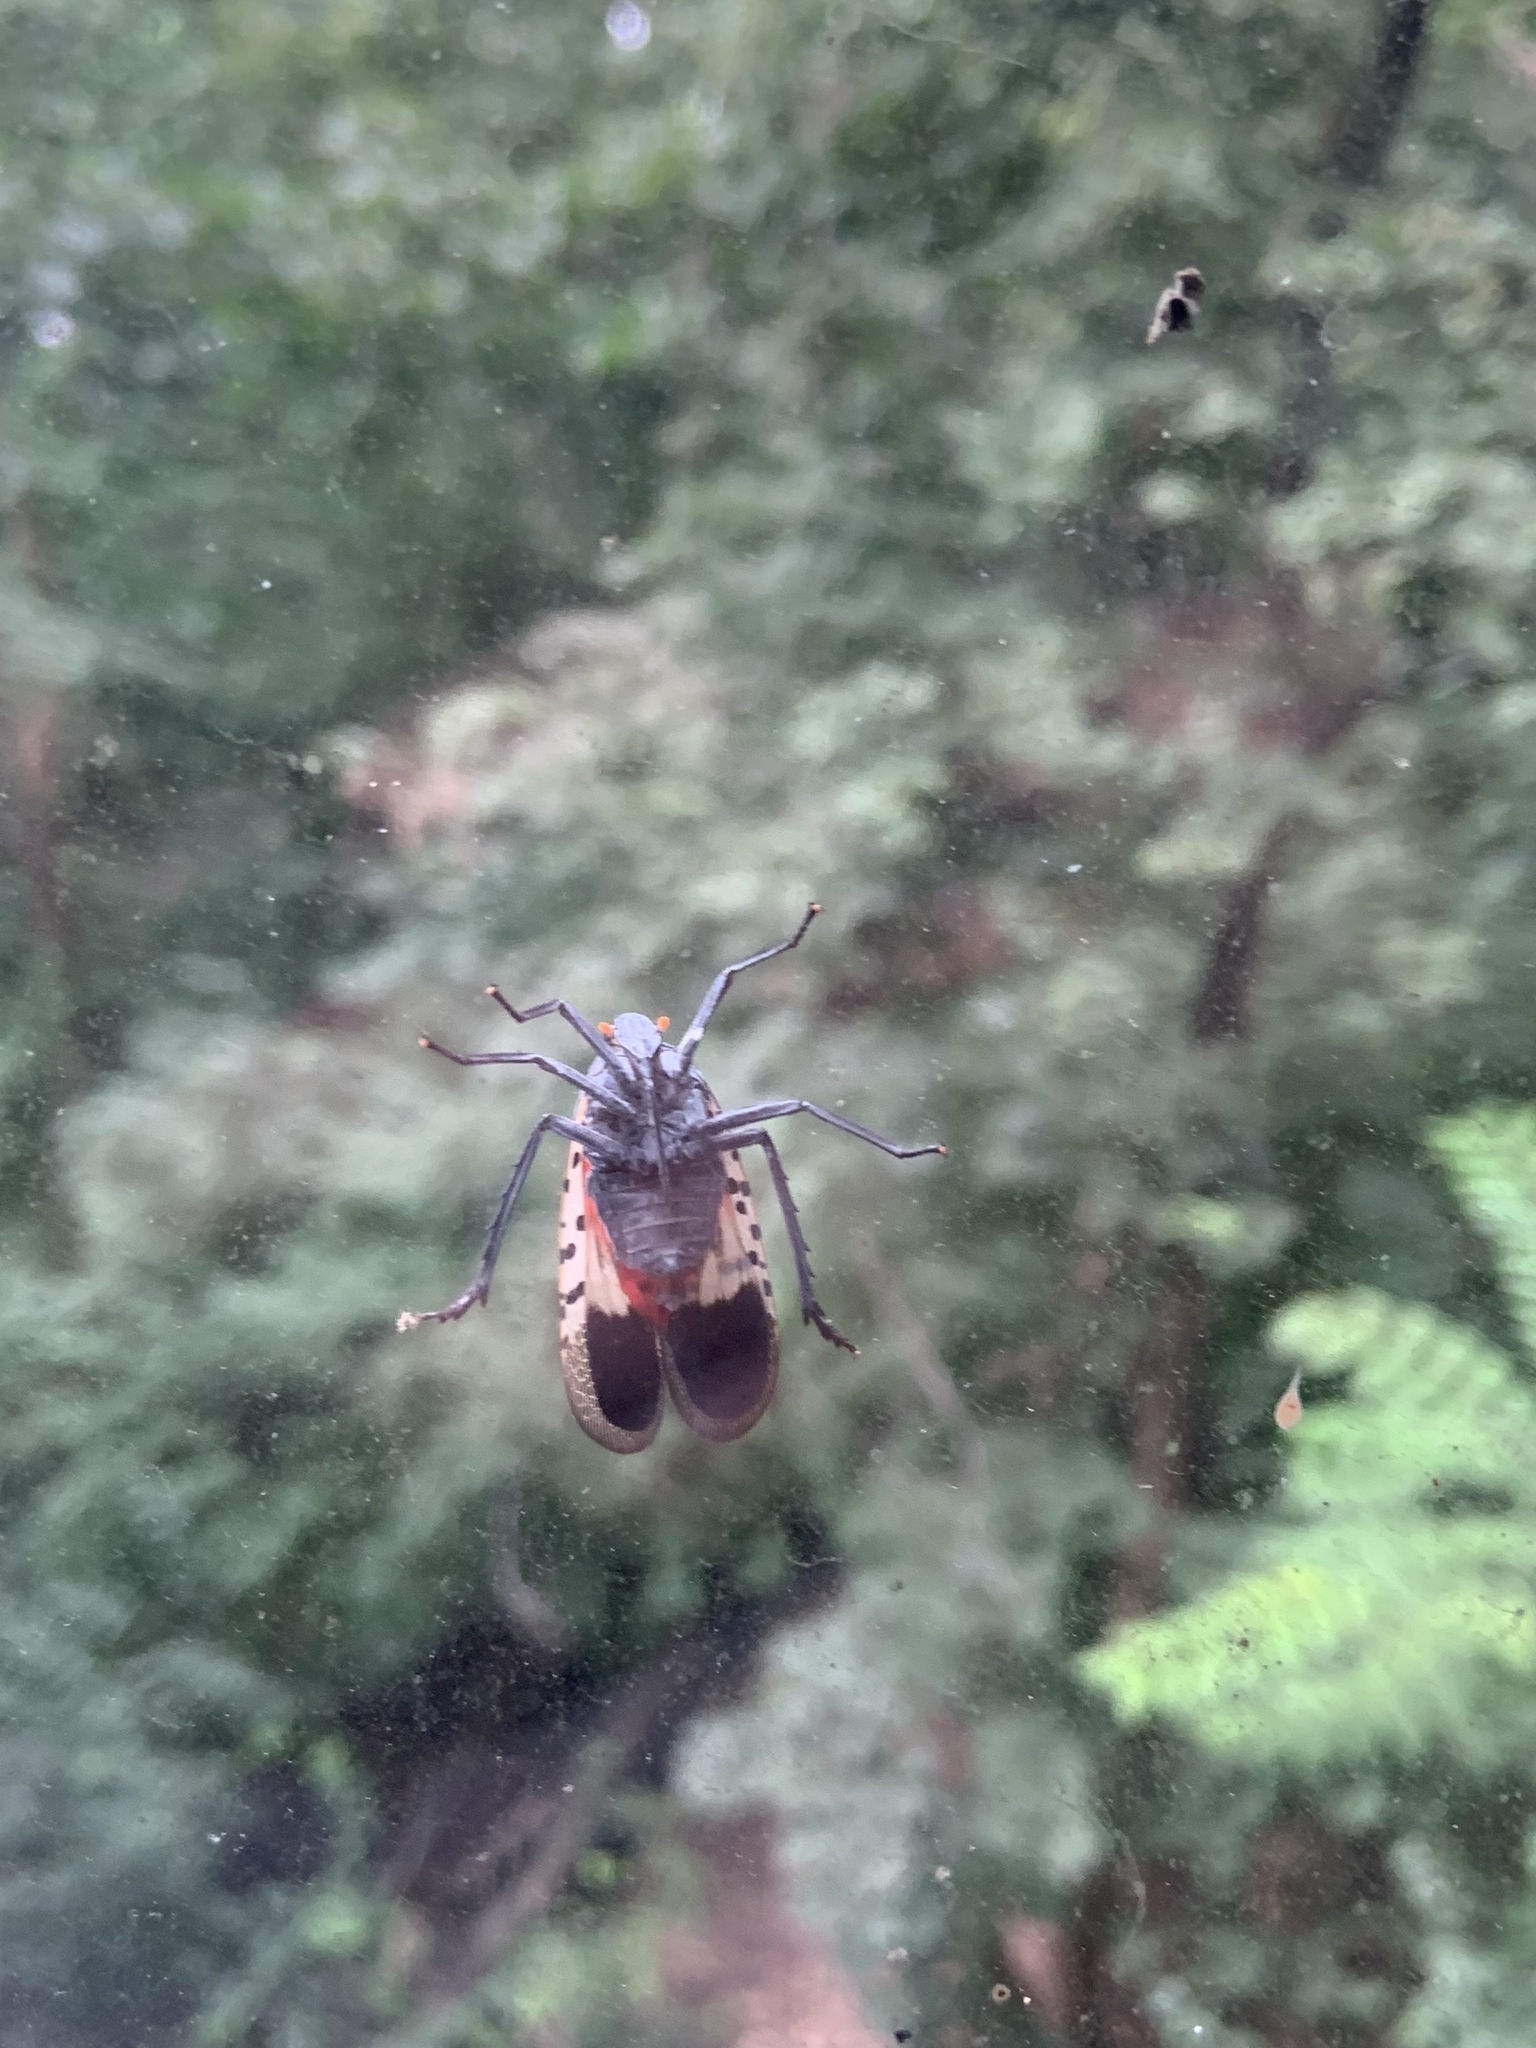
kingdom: Animalia
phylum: Arthropoda
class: Insecta
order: Hemiptera
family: Fulgoridae
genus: Lycorma
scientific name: Lycorma delicatula
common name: Spotted lanternfly
